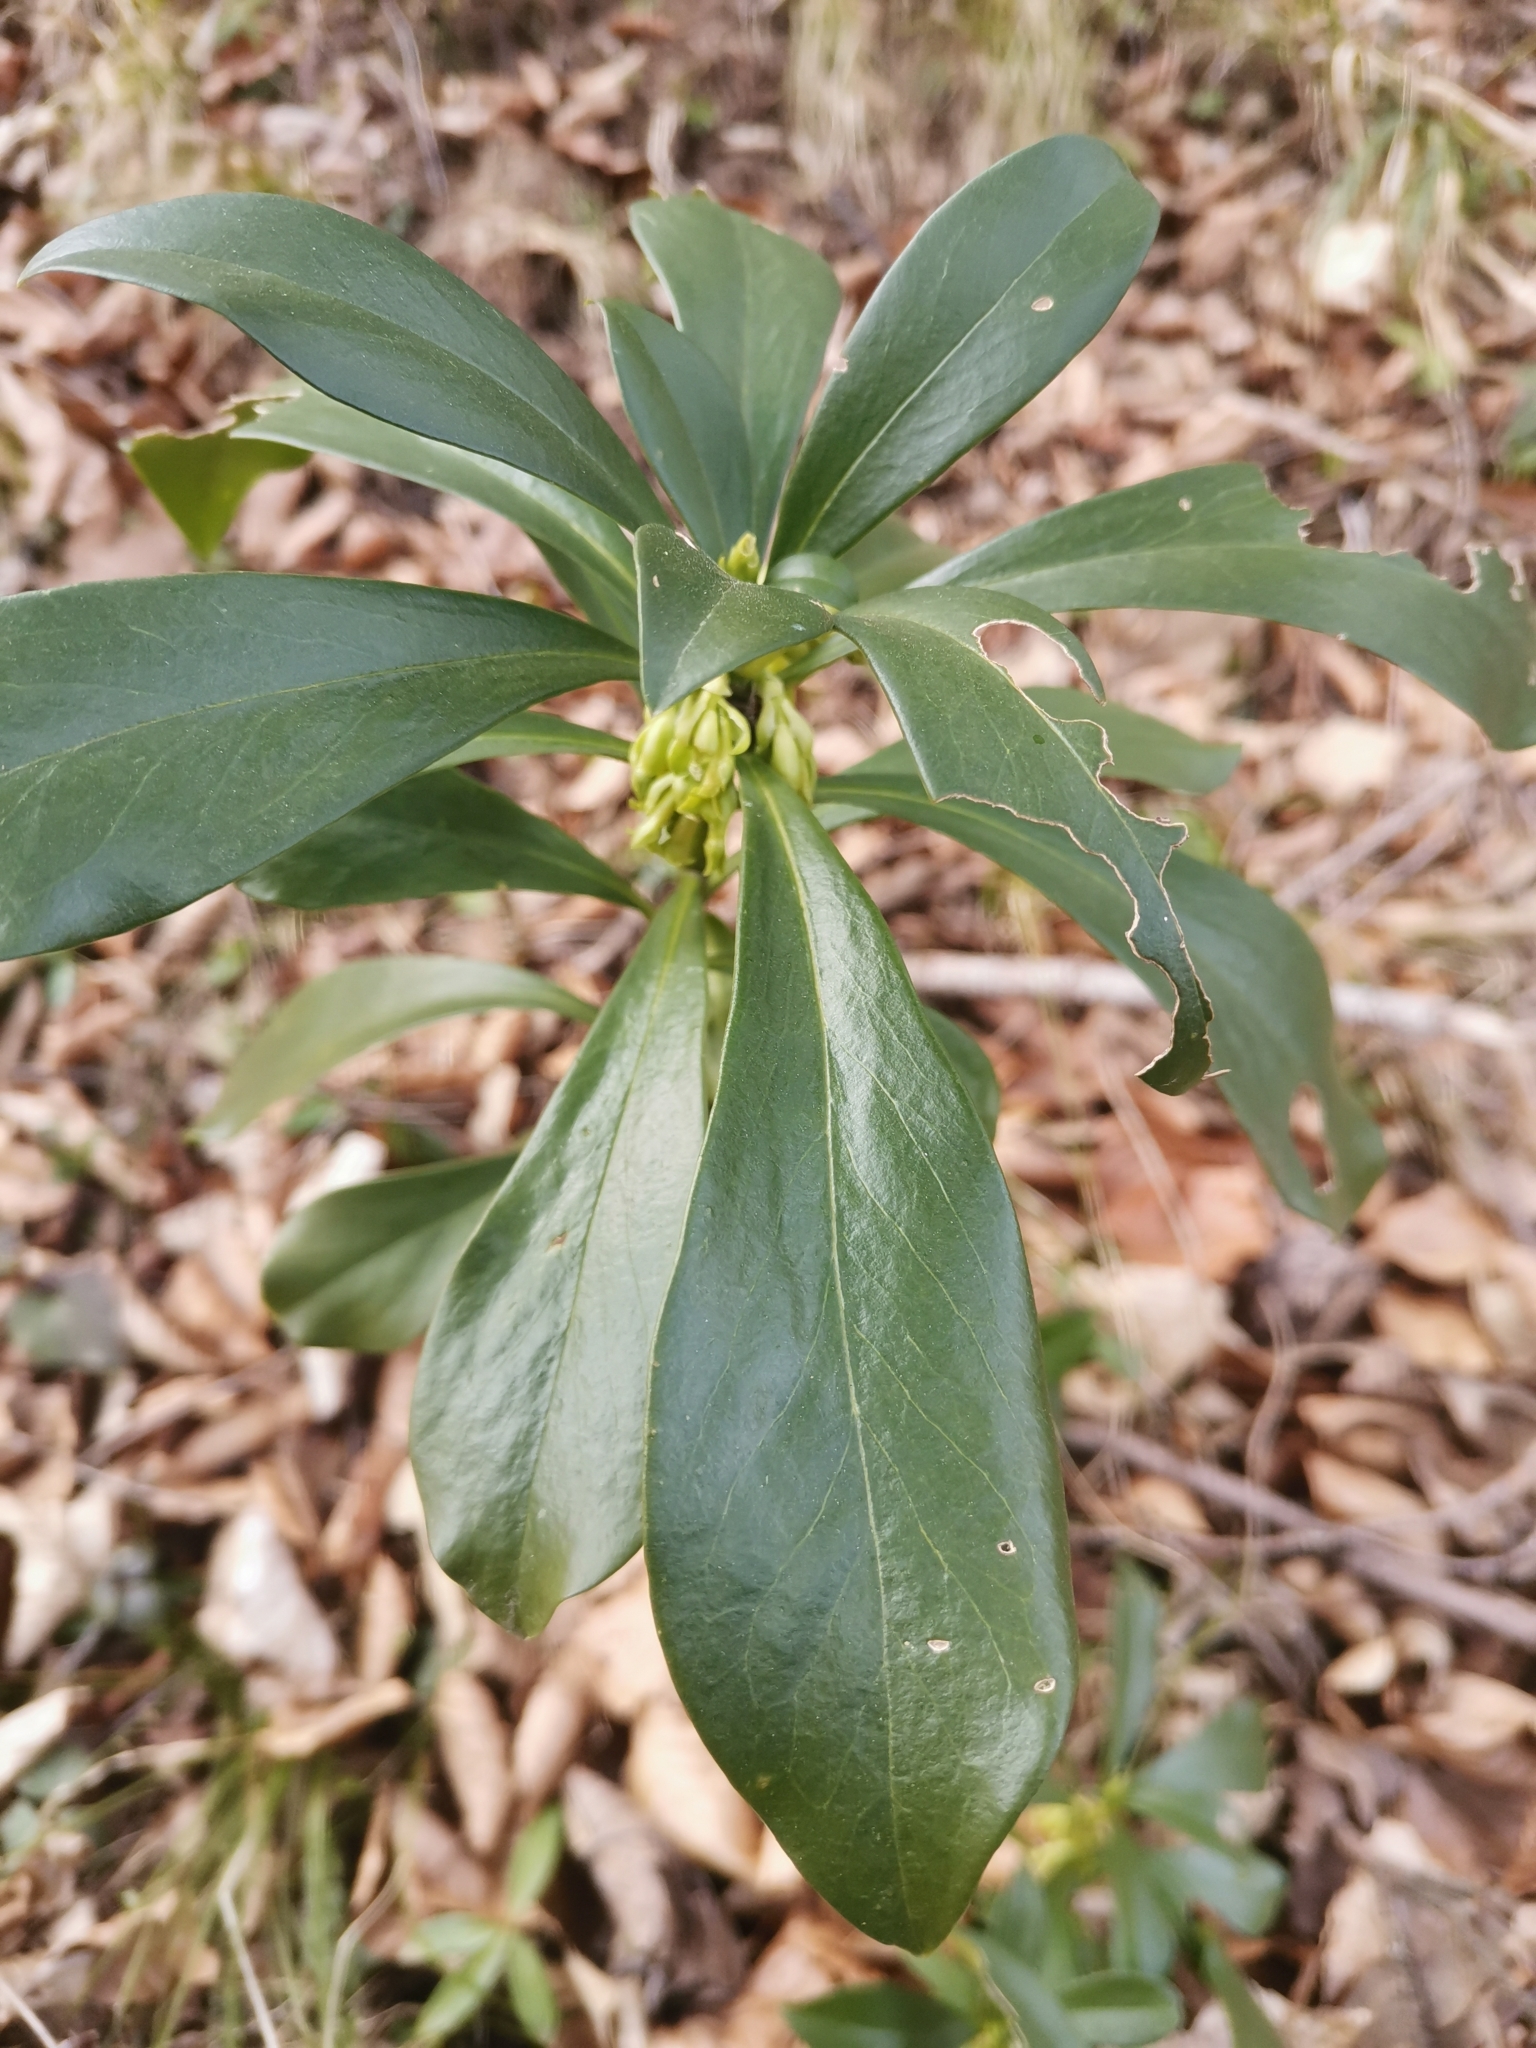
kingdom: Plantae
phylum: Tracheophyta
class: Magnoliopsida
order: Malvales
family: Thymelaeaceae
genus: Daphne
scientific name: Daphne laureola
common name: Spurge-laurel
